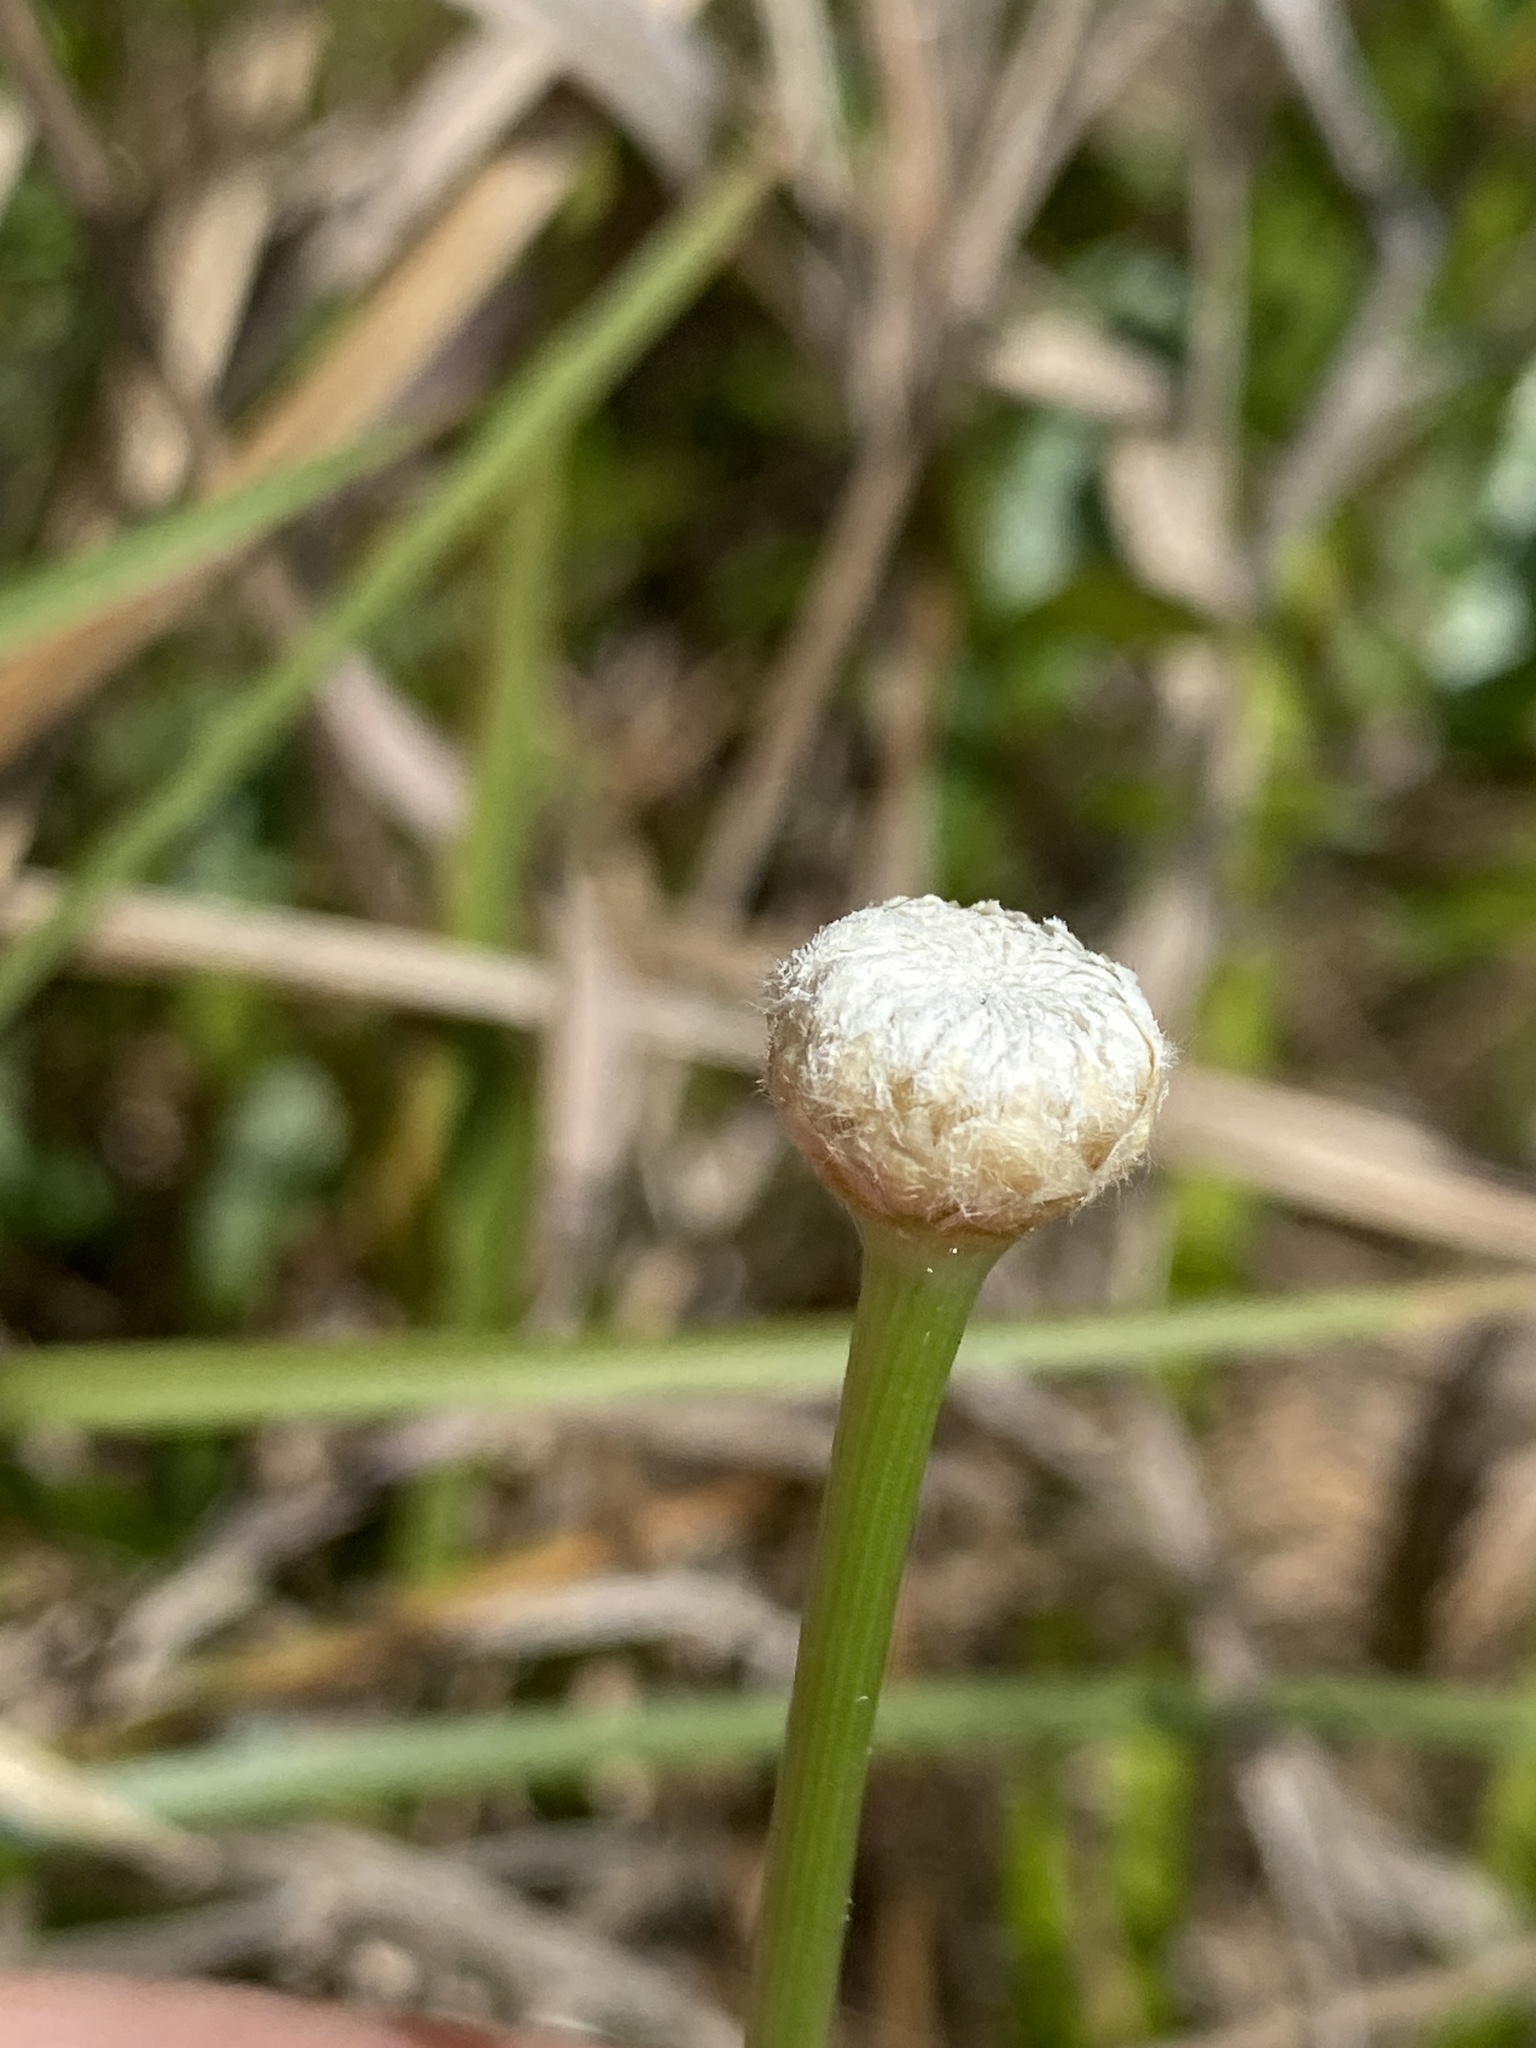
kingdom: Plantae
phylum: Tracheophyta
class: Liliopsida
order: Poales
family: Eriocaulaceae
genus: Eriocaulon
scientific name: Eriocaulon decangulare
